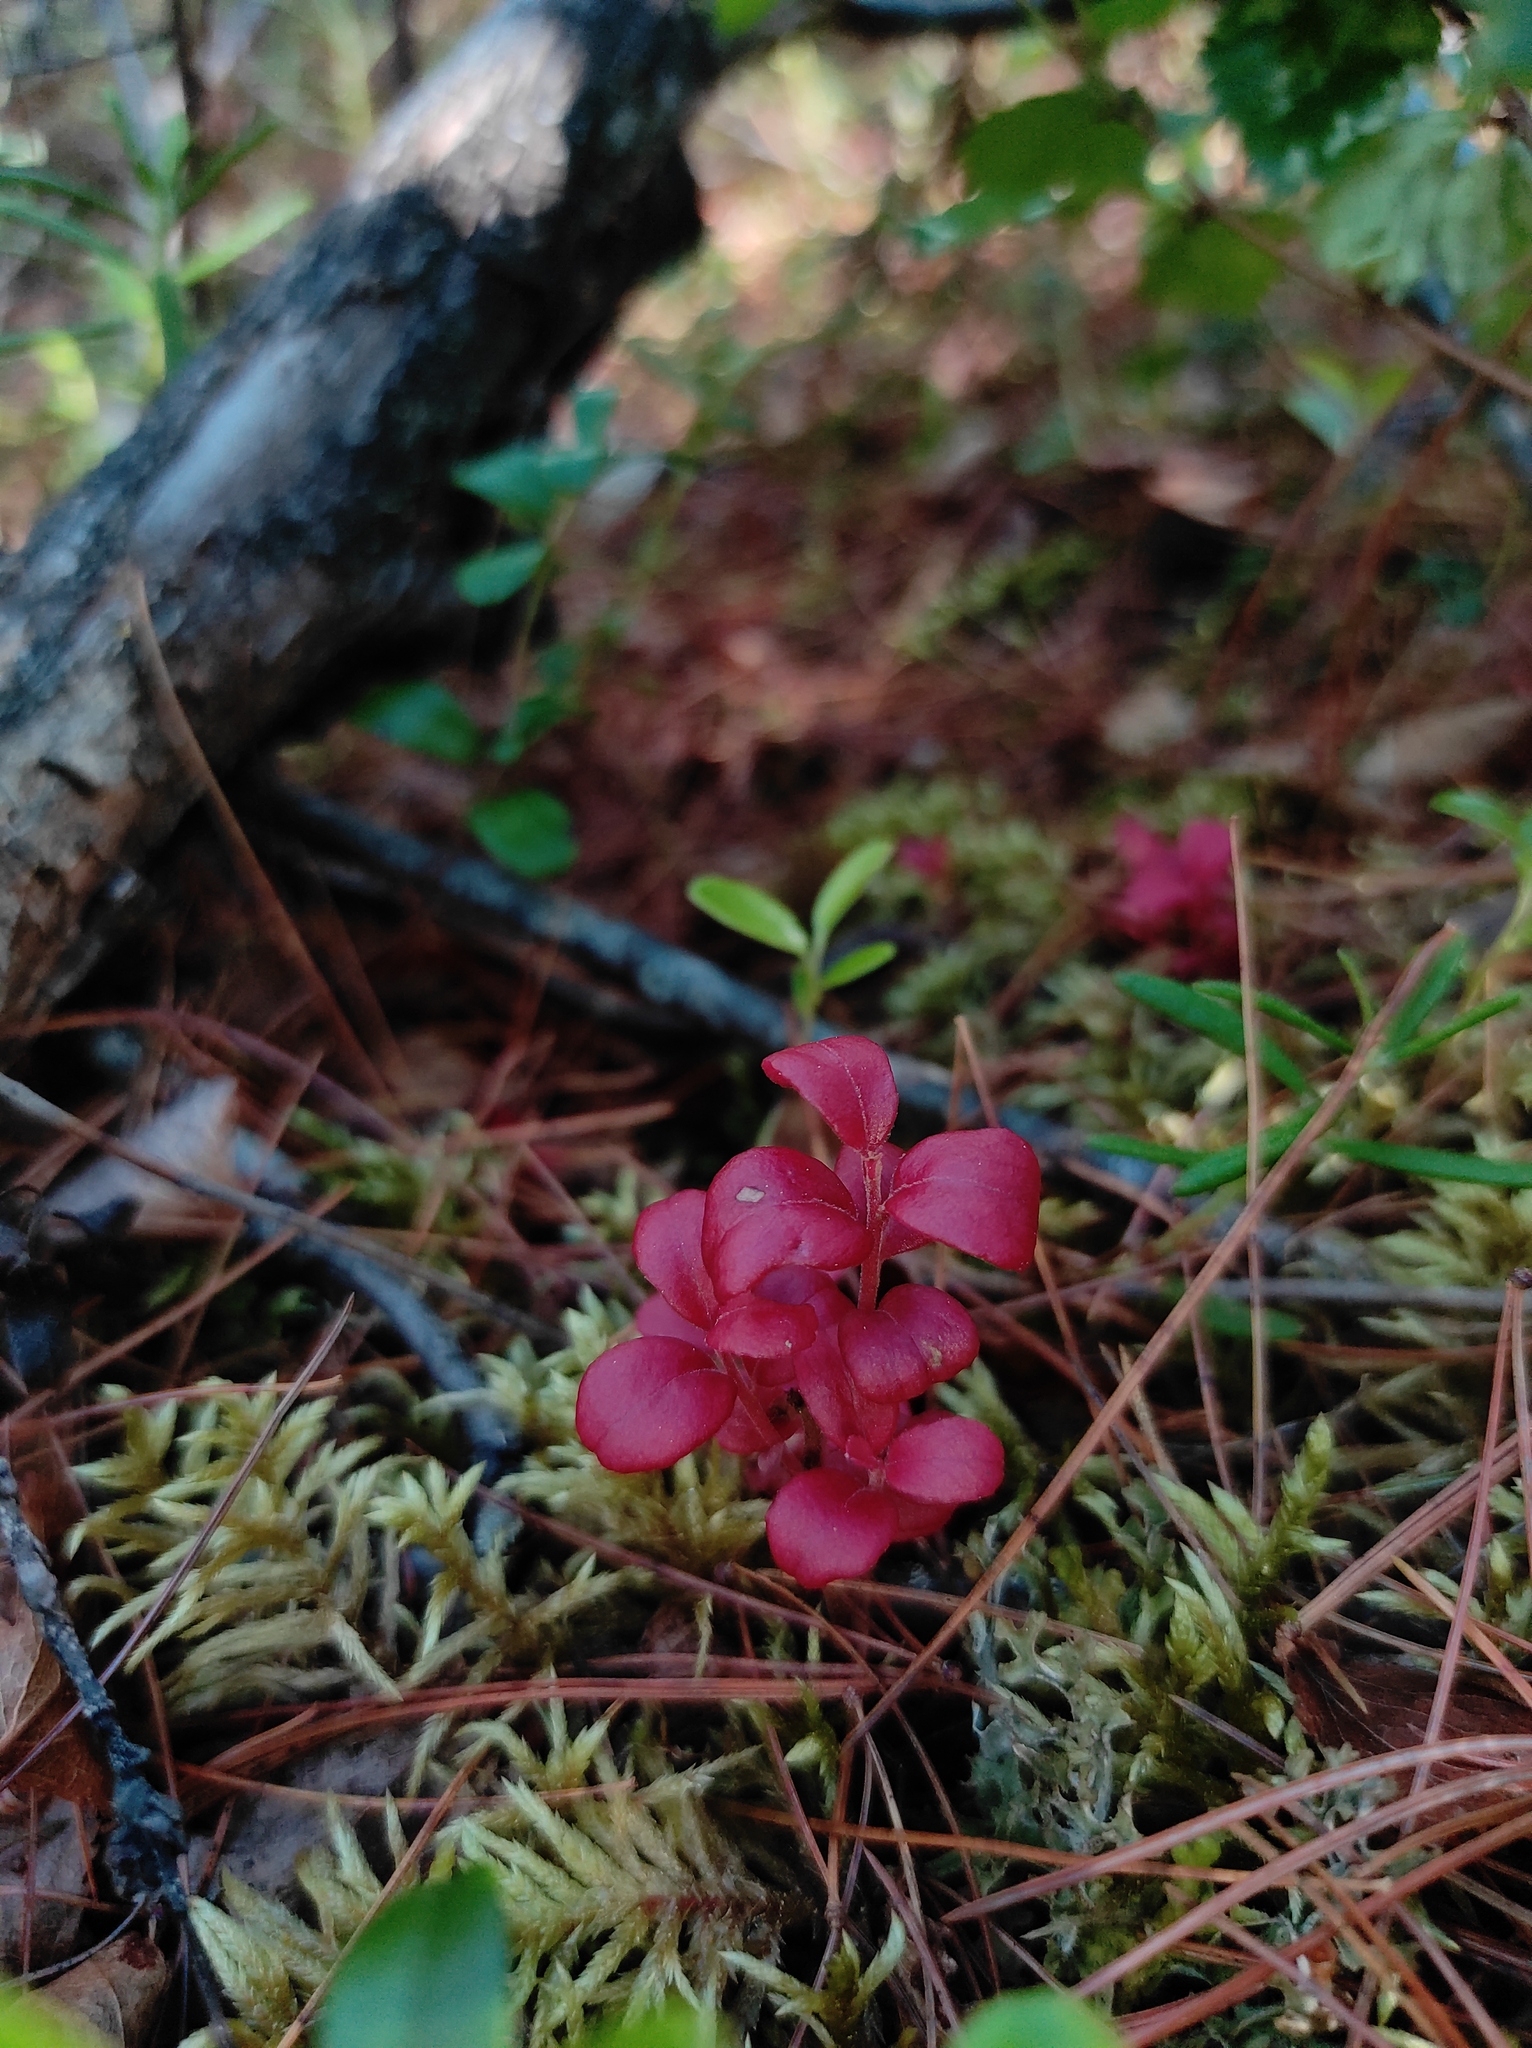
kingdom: Plantae
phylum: Tracheophyta
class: Magnoliopsida
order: Ericales
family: Ericaceae
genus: Vaccinium
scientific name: Vaccinium vitis-idaea
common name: Cowberry
